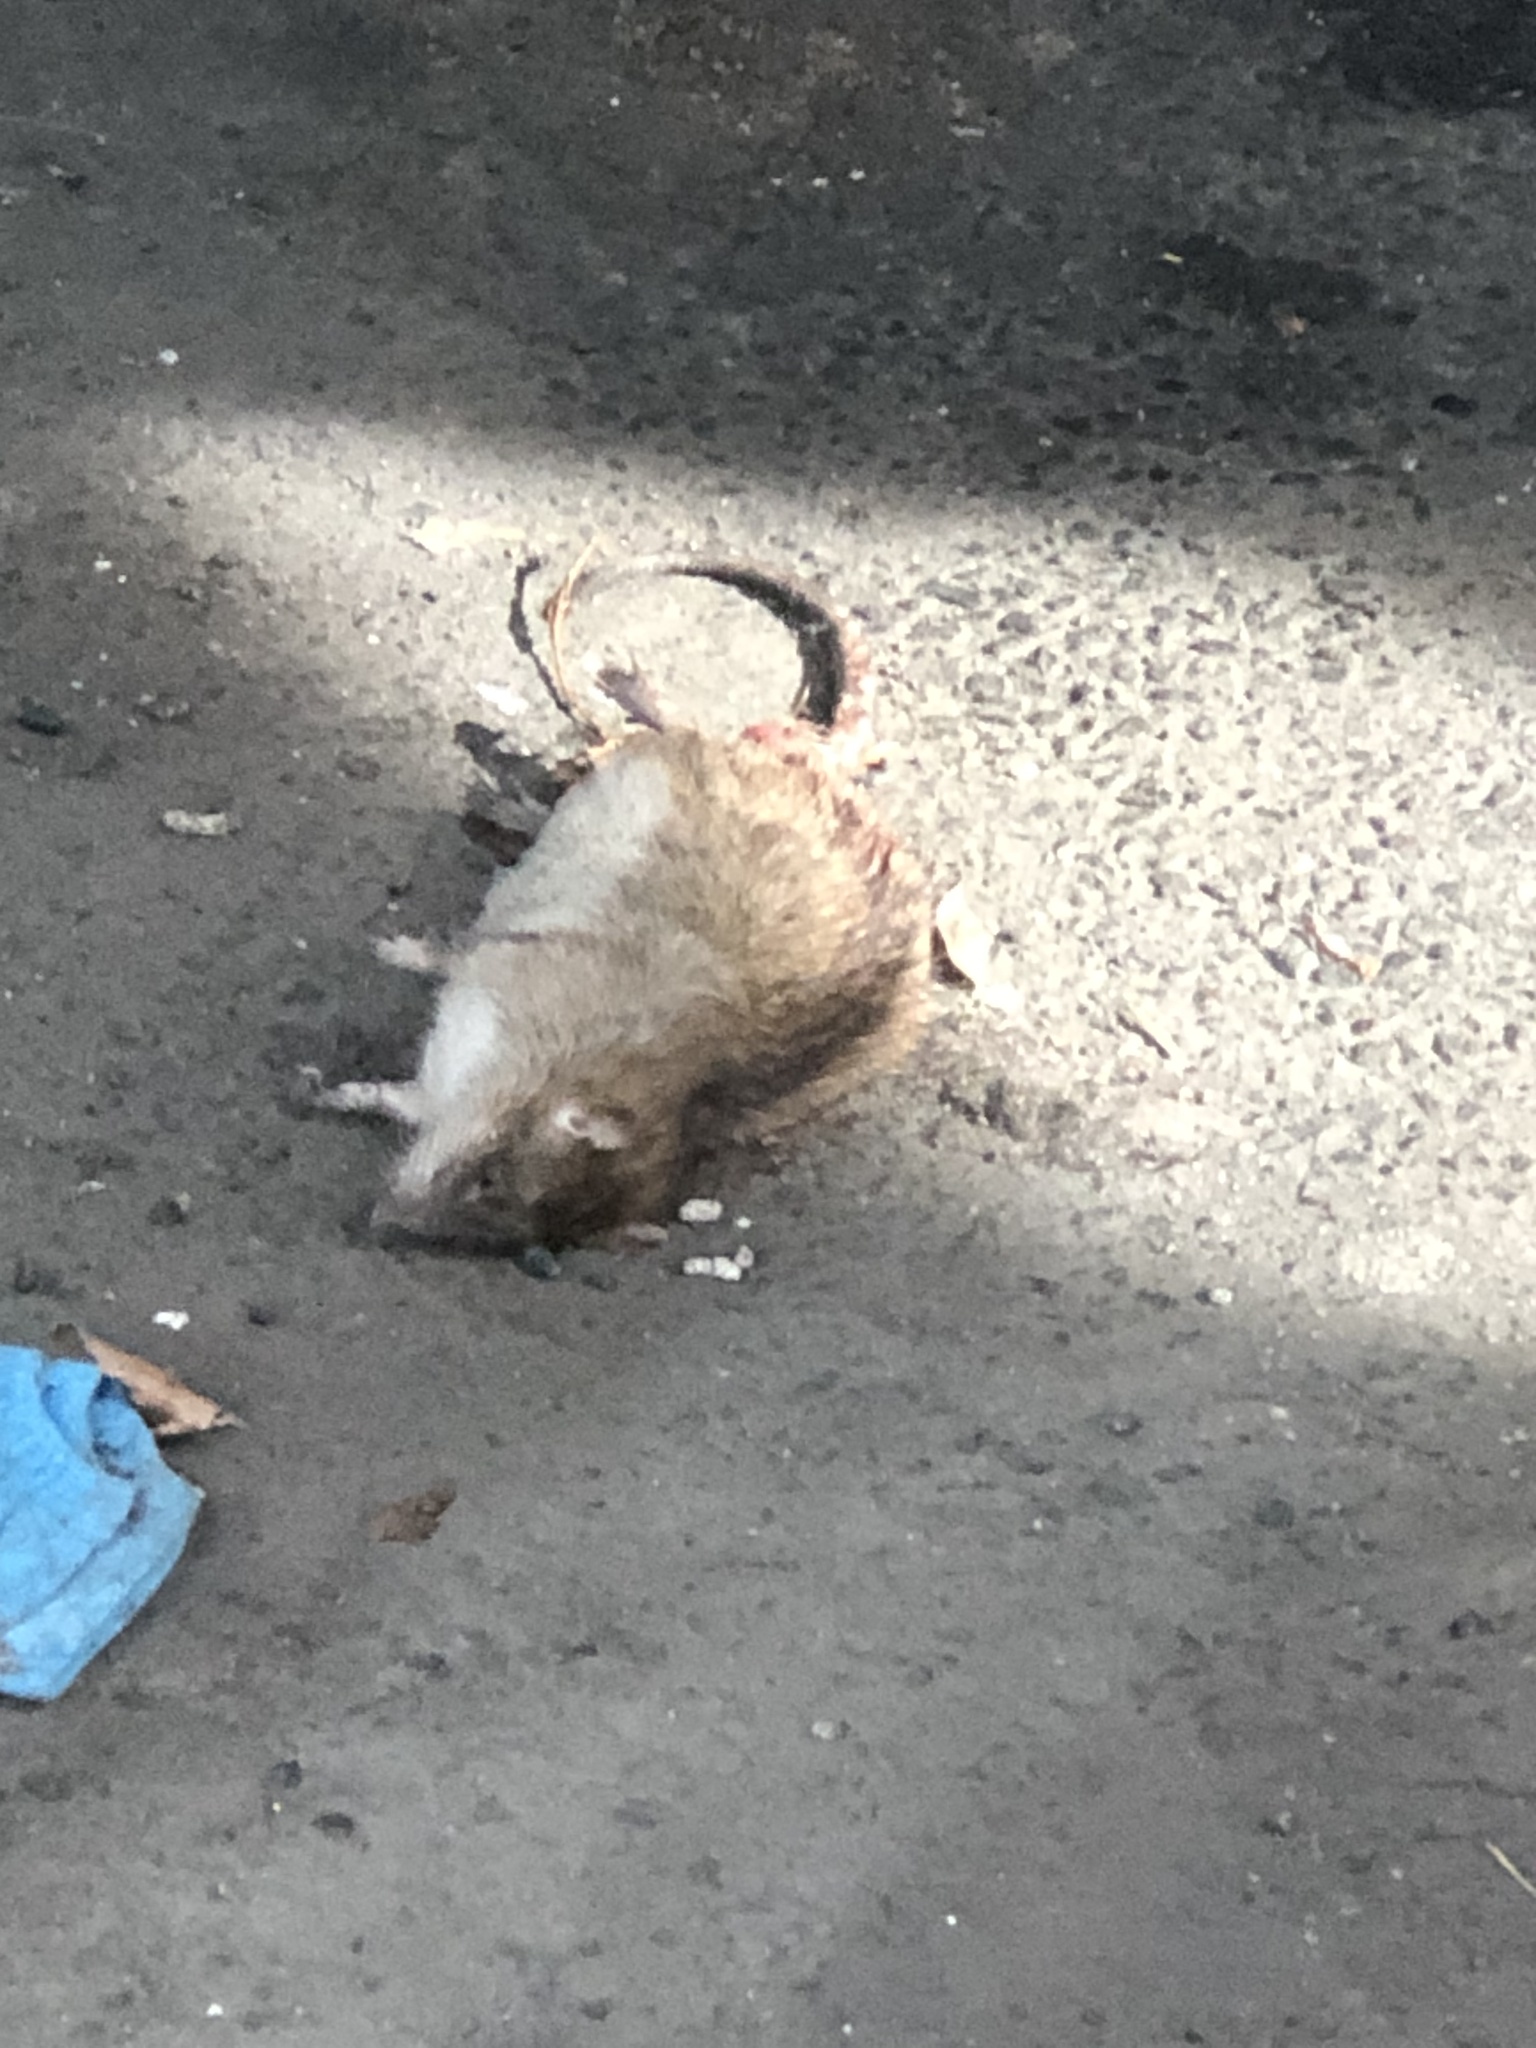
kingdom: Animalia
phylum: Chordata
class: Mammalia
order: Rodentia
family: Muridae
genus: Rattus
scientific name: Rattus norvegicus
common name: Brown rat
